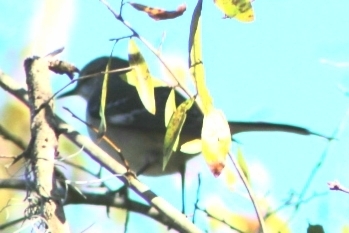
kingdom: Animalia
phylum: Chordata
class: Aves
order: Passeriformes
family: Mimidae
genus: Mimus
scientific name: Mimus polyglottos
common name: Northern mockingbird
